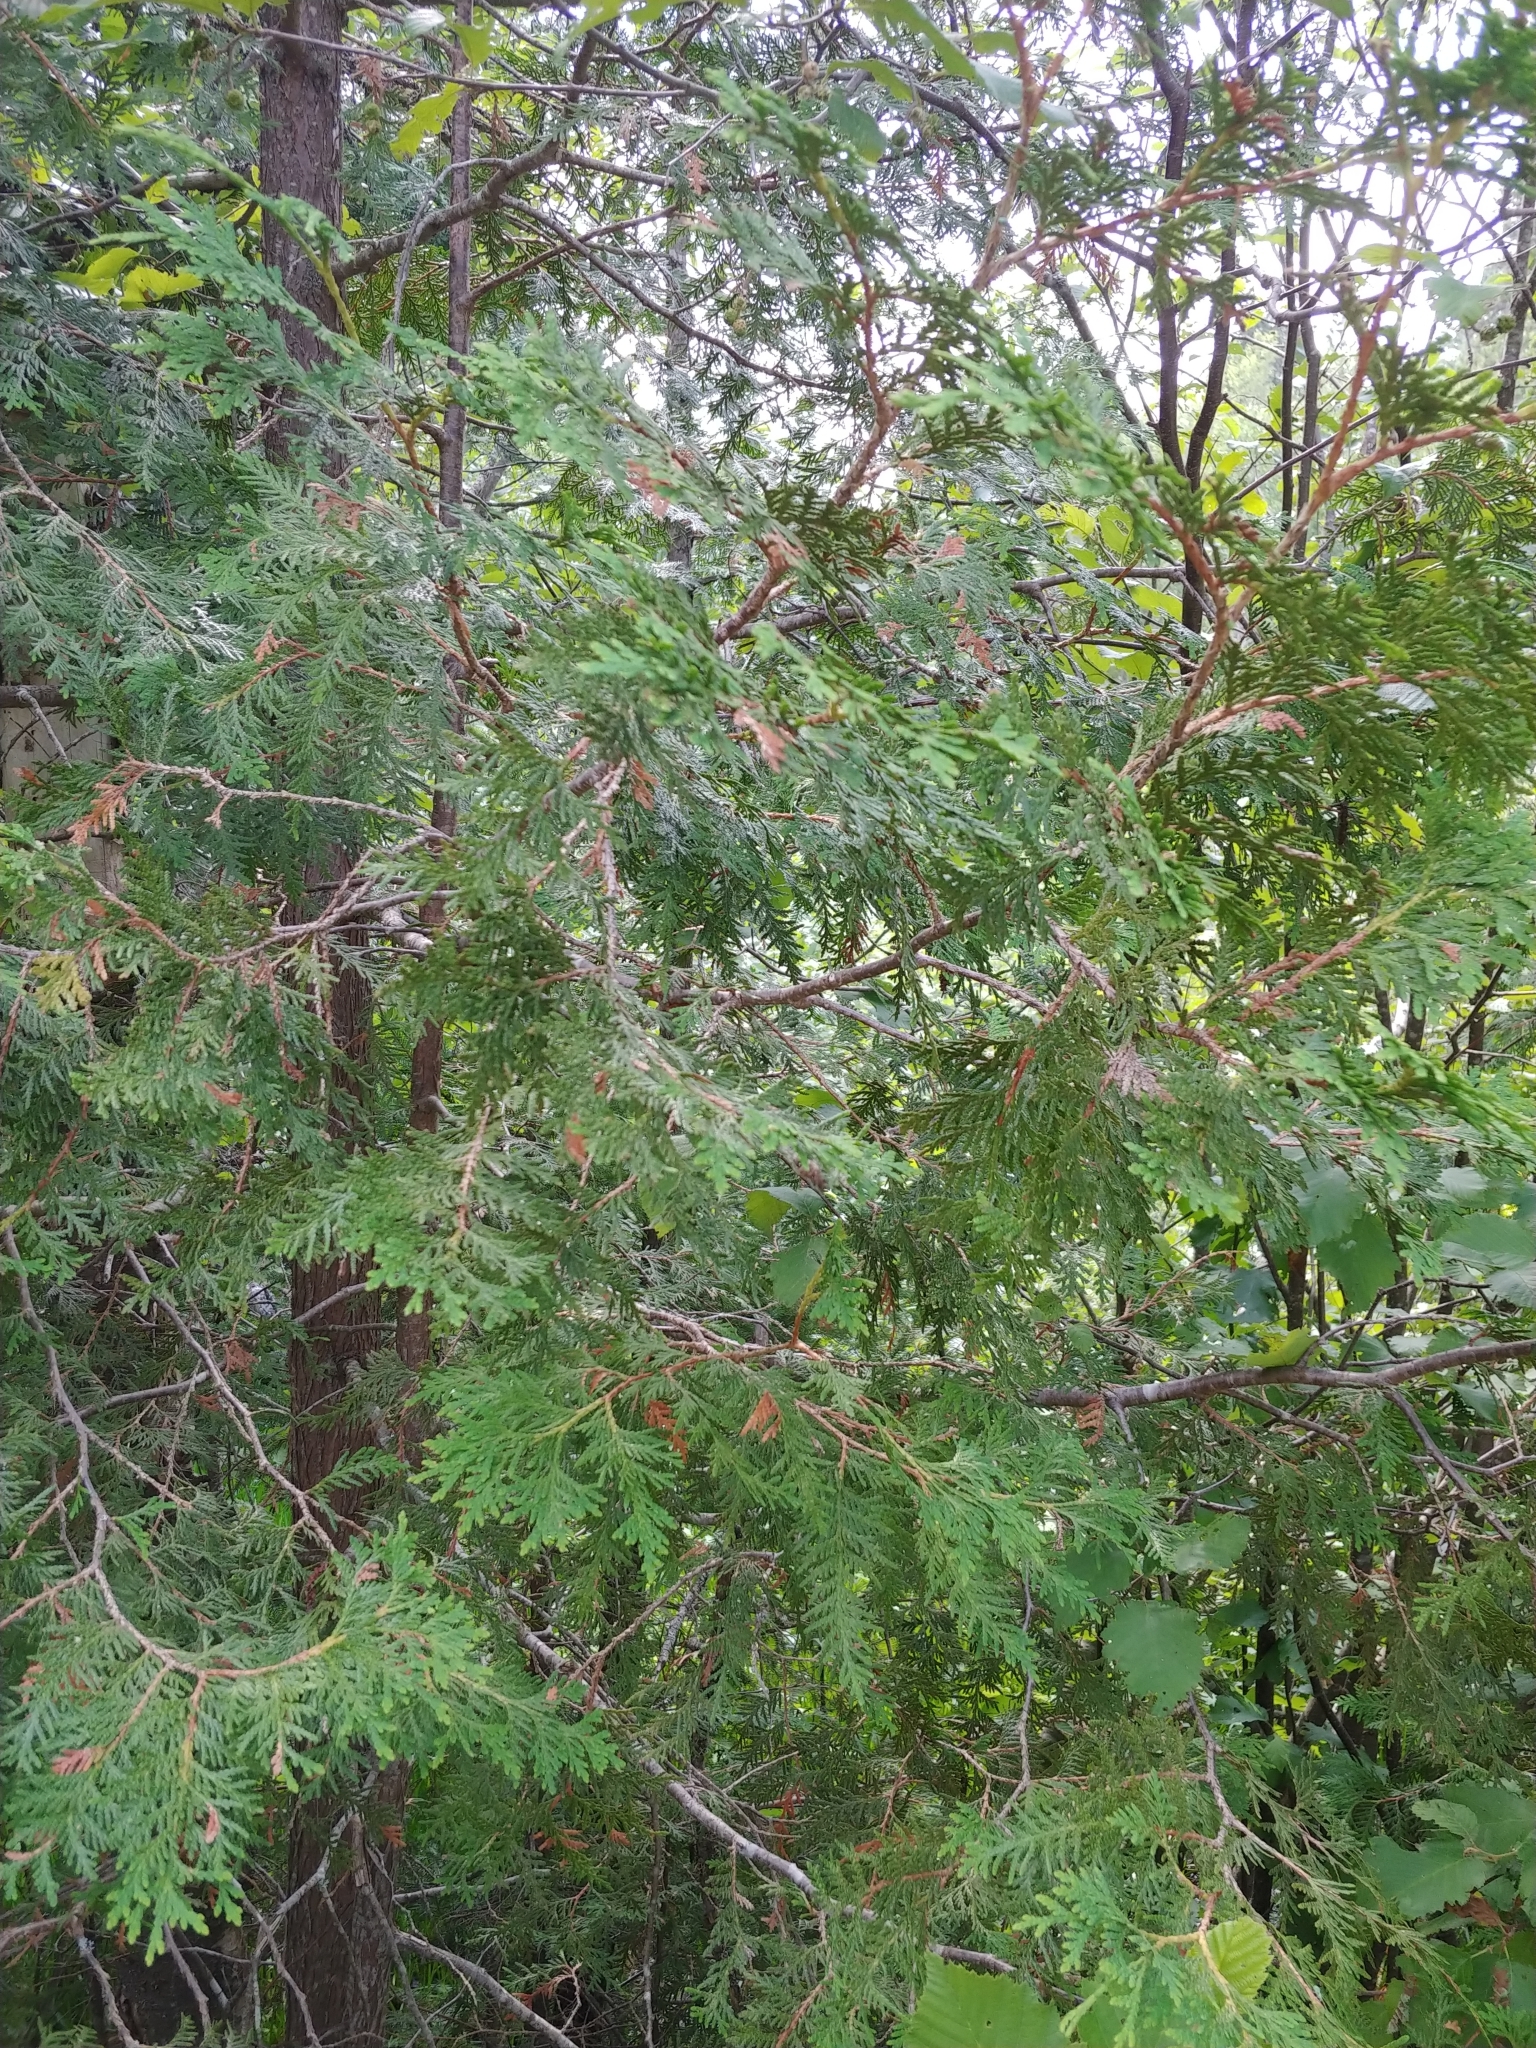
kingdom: Plantae
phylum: Tracheophyta
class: Pinopsida
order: Pinales
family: Cupressaceae
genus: Thuja
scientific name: Thuja occidentalis
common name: Northern white-cedar
